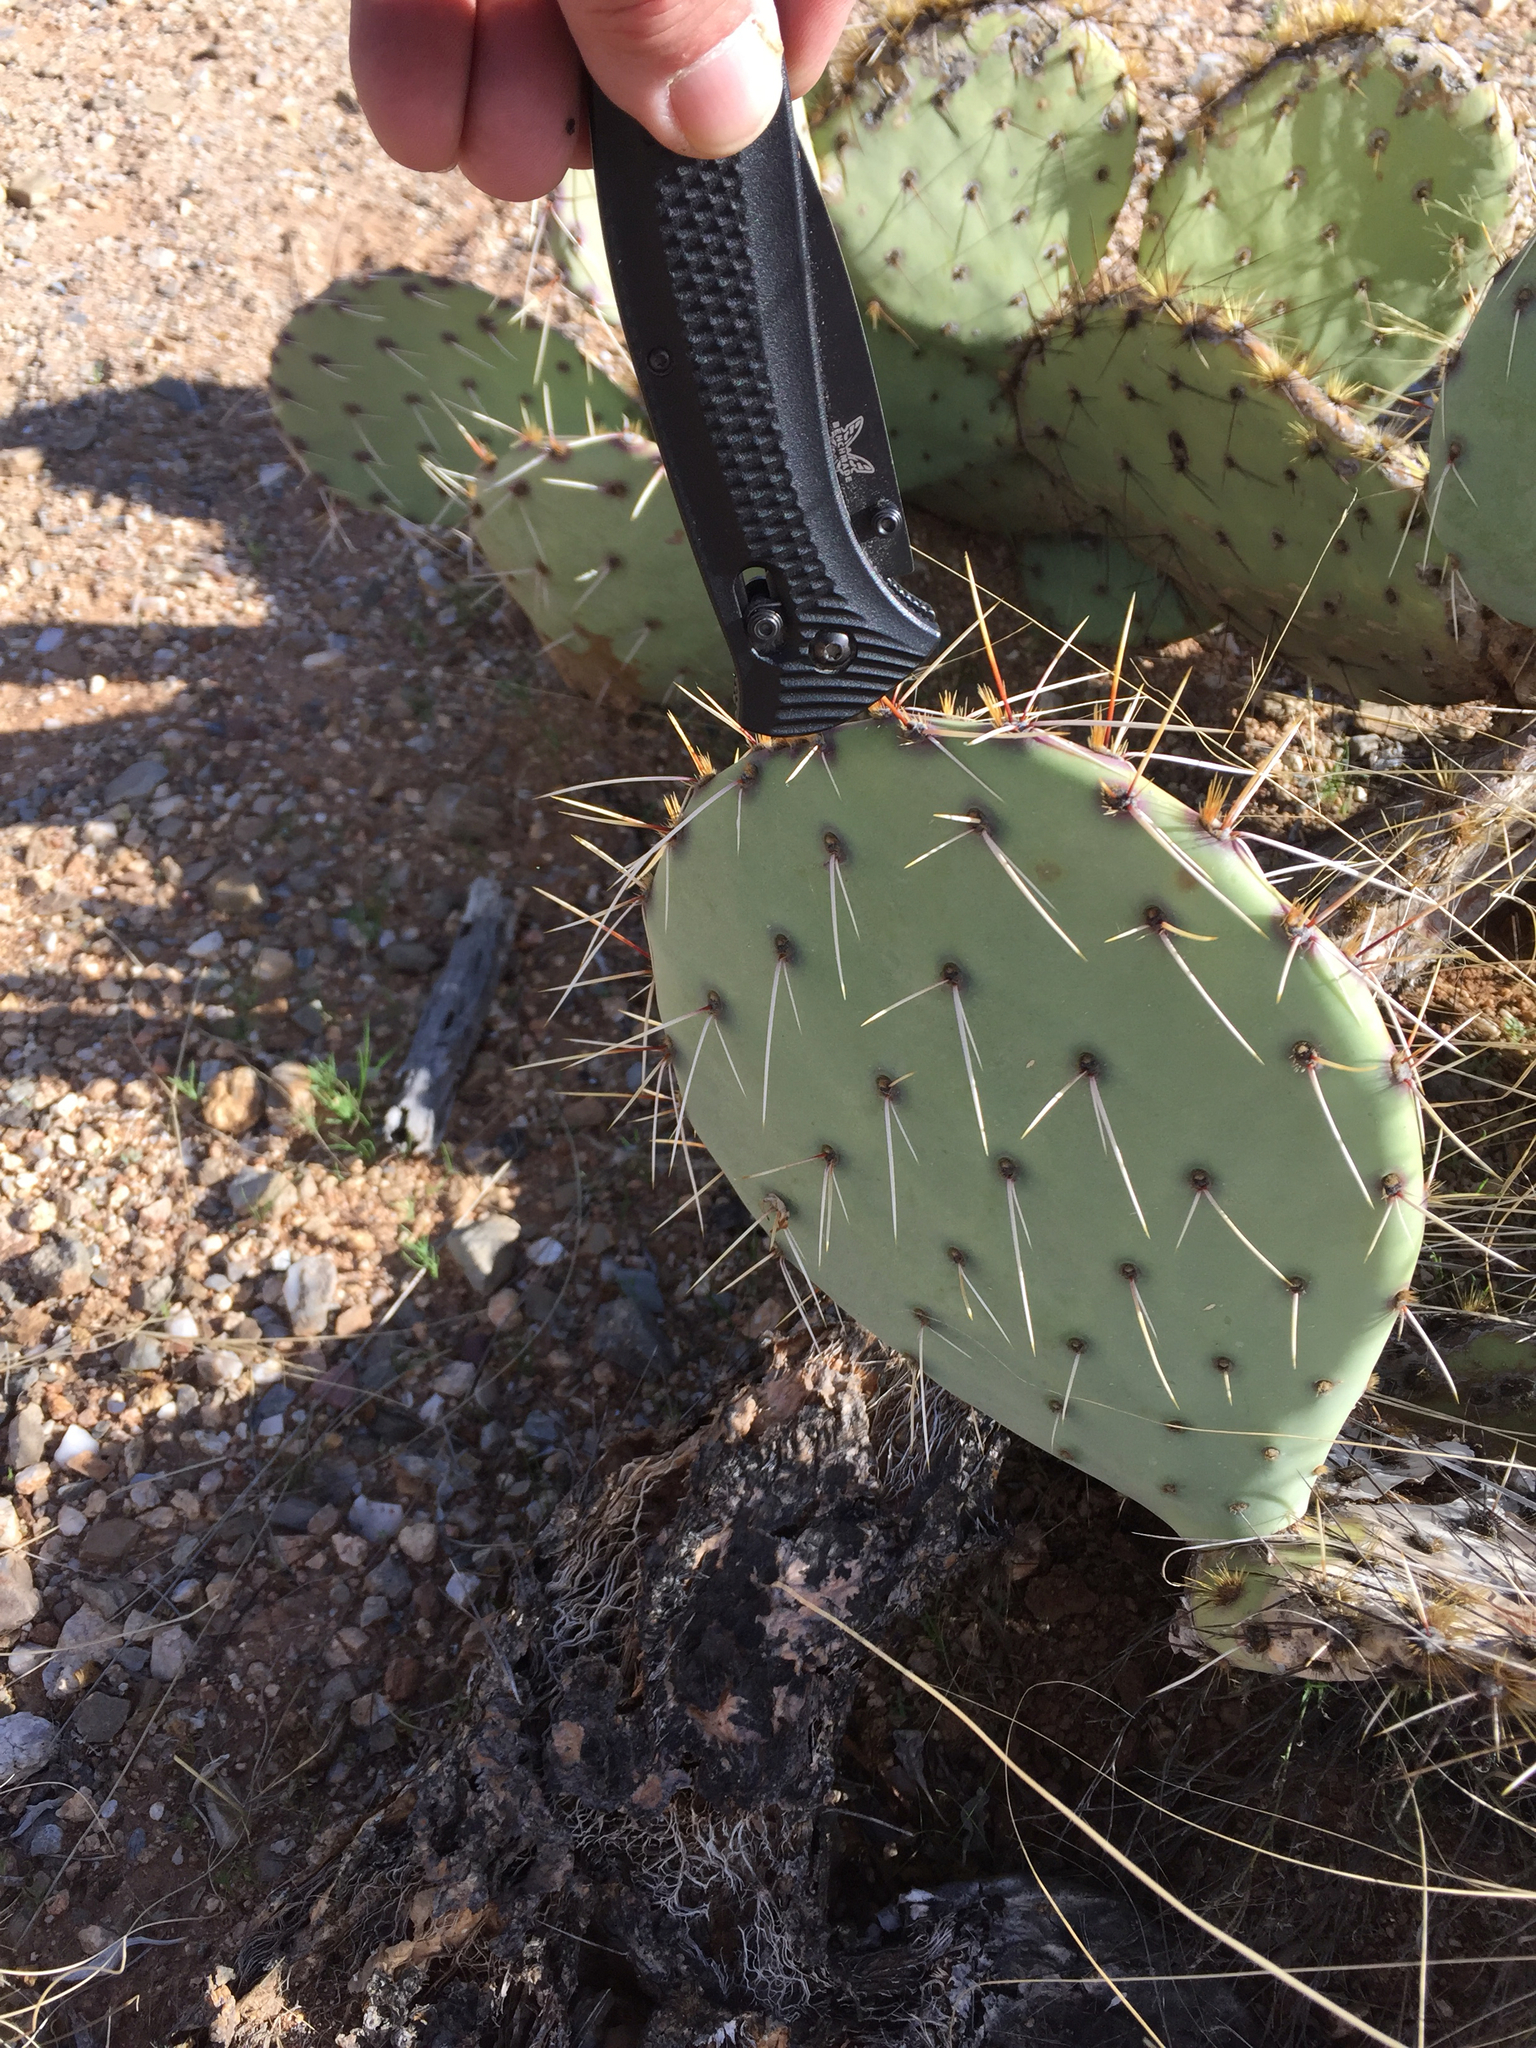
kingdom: Plantae
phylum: Tracheophyta
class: Magnoliopsida
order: Caryophyllales
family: Cactaceae
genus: Opuntia
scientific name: Opuntia phaeacantha
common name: New mexico prickly-pear
